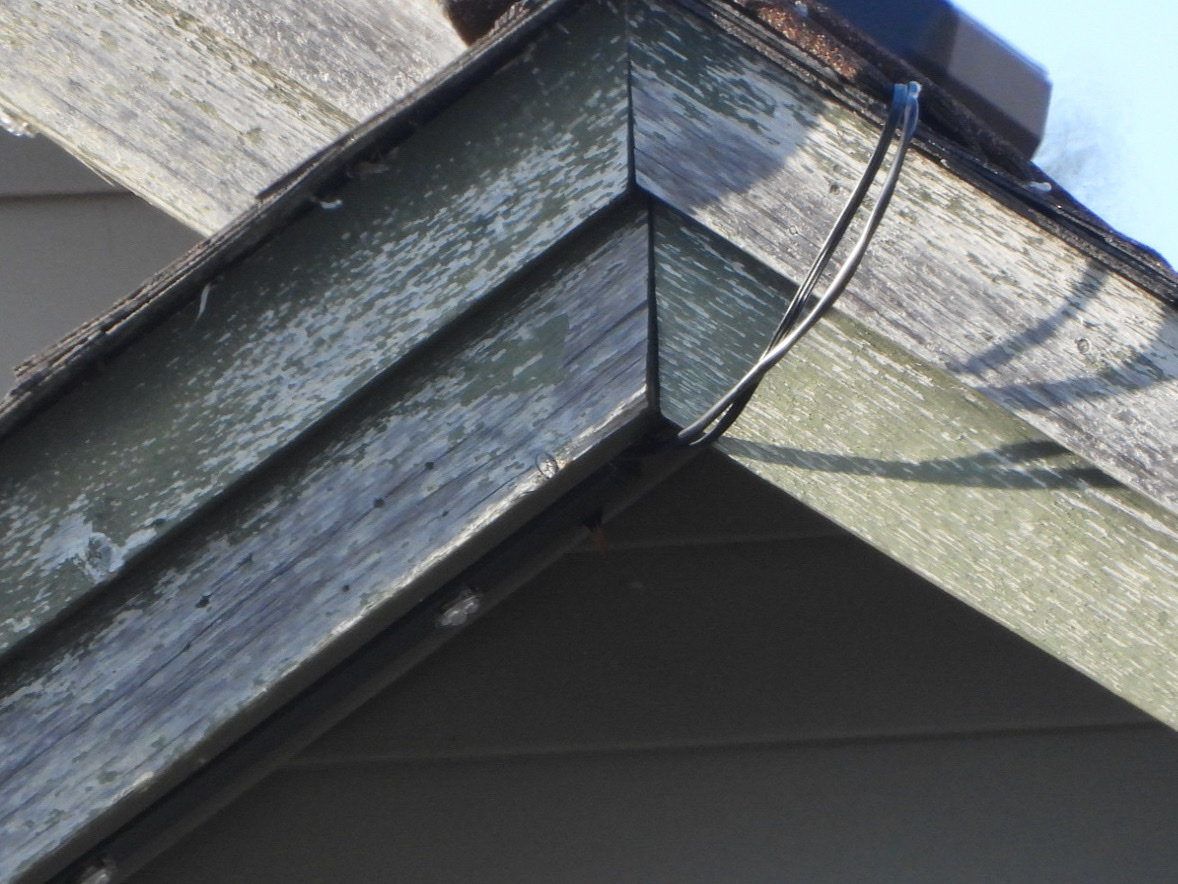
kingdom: Animalia
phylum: Chordata
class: Aves
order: Passeriformes
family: Sturnidae
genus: Sturnus
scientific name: Sturnus vulgaris
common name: Common starling
